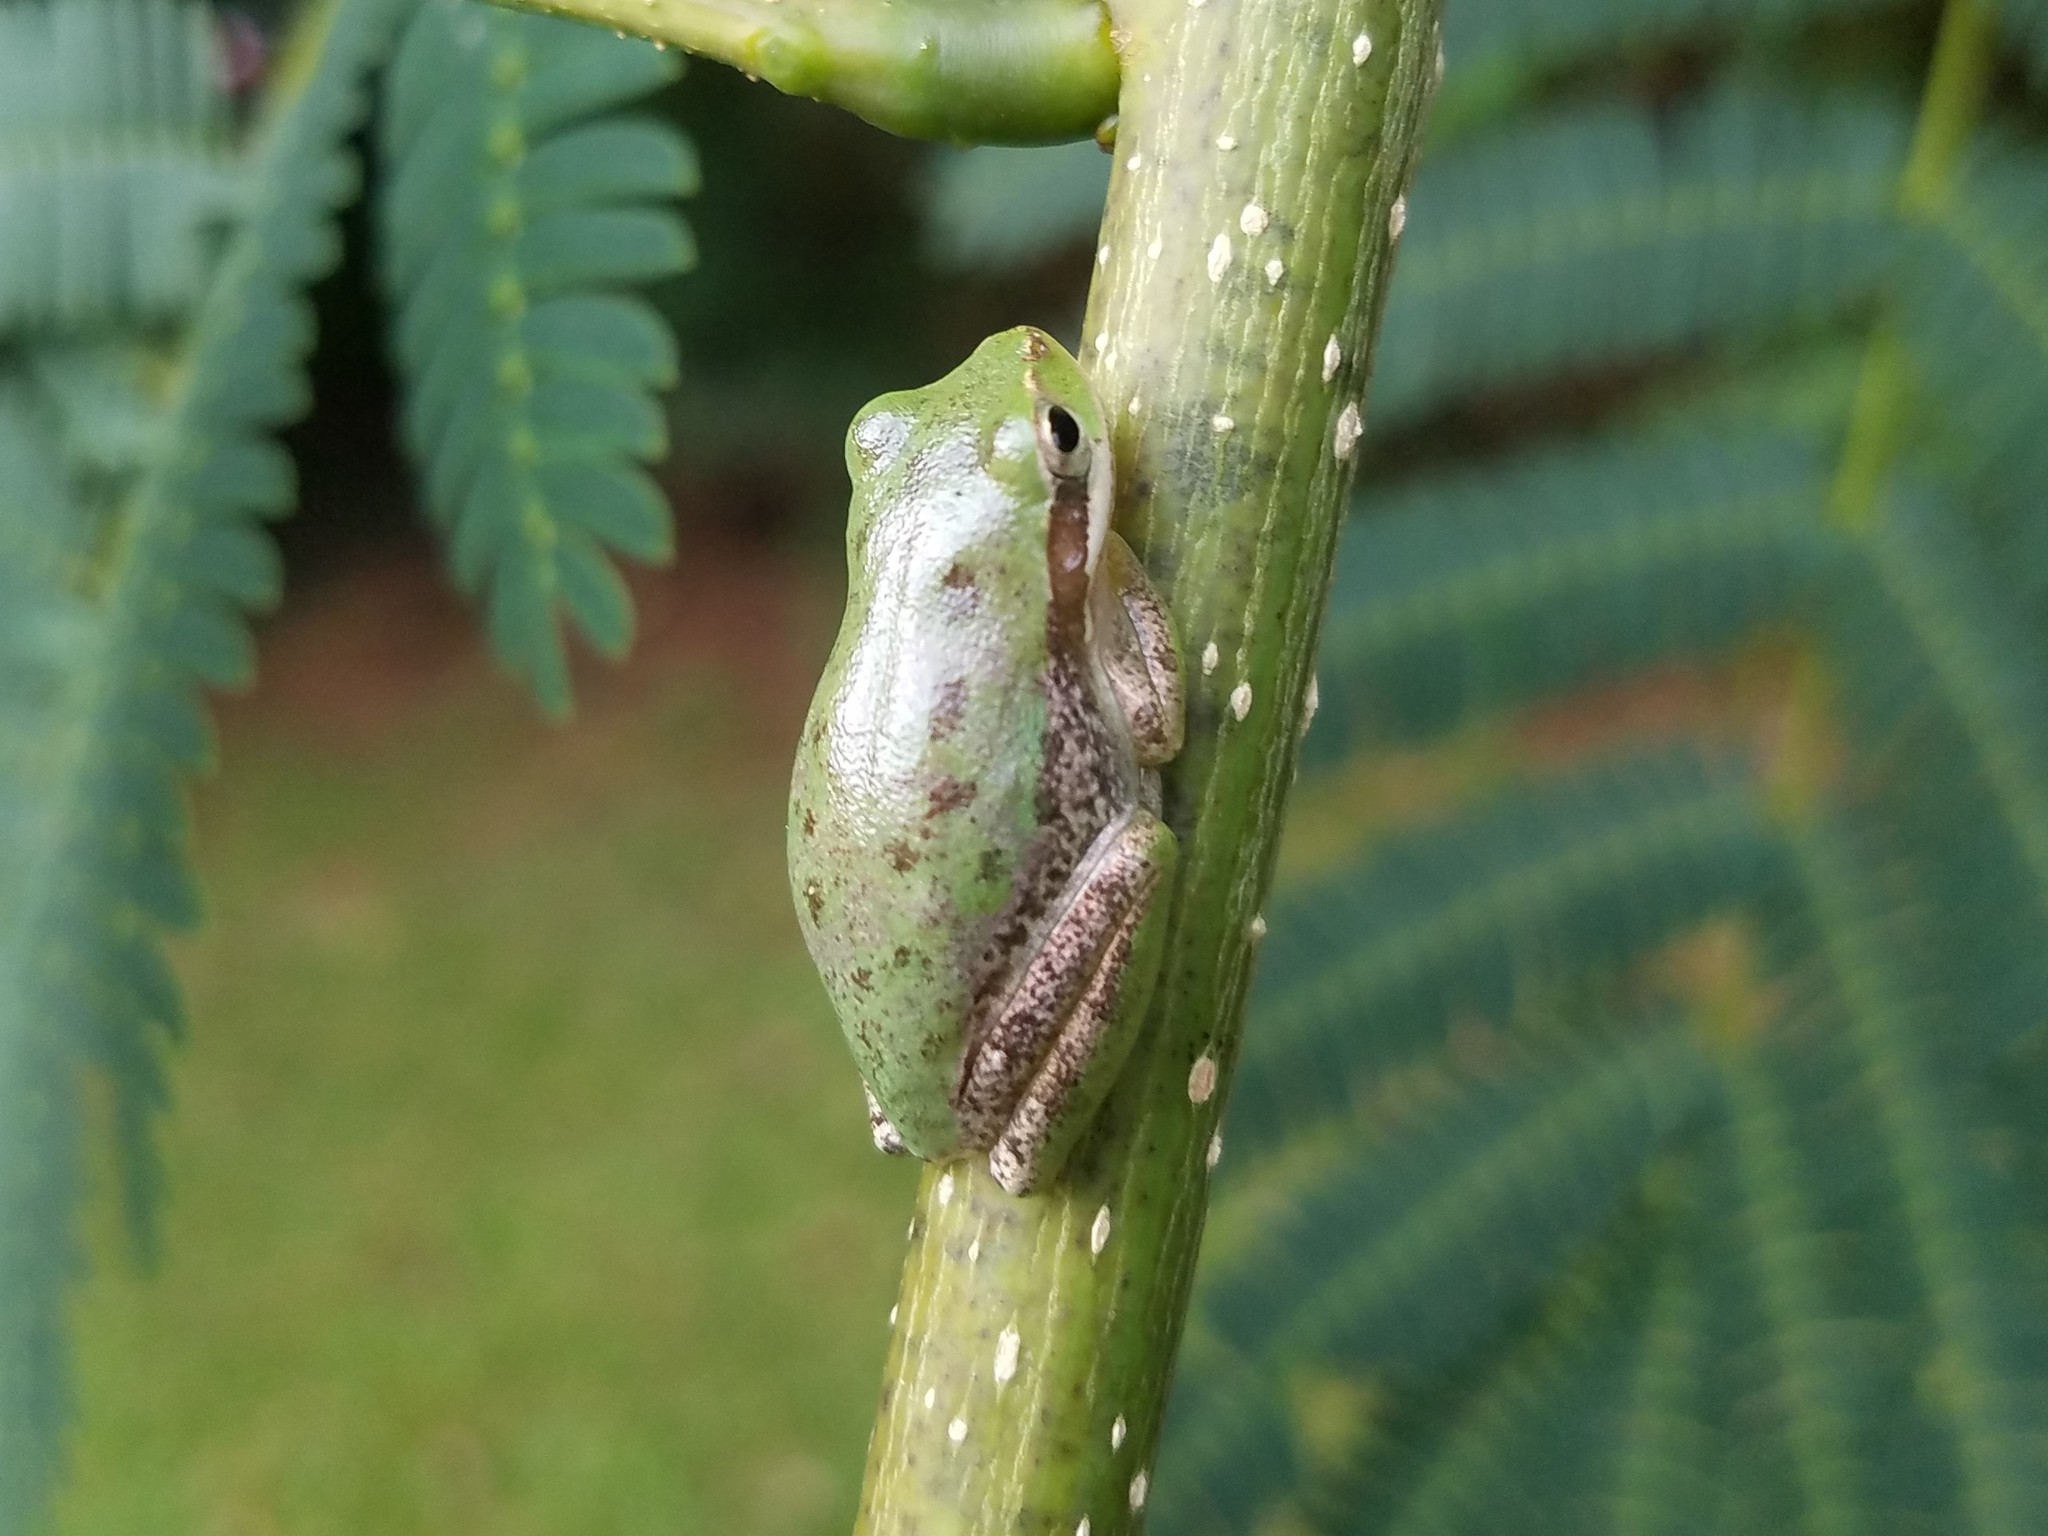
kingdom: Animalia
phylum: Chordata
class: Amphibia
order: Anura
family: Hylidae
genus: Dryophytes
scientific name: Dryophytes squirellus
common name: Squirrel treefrog
